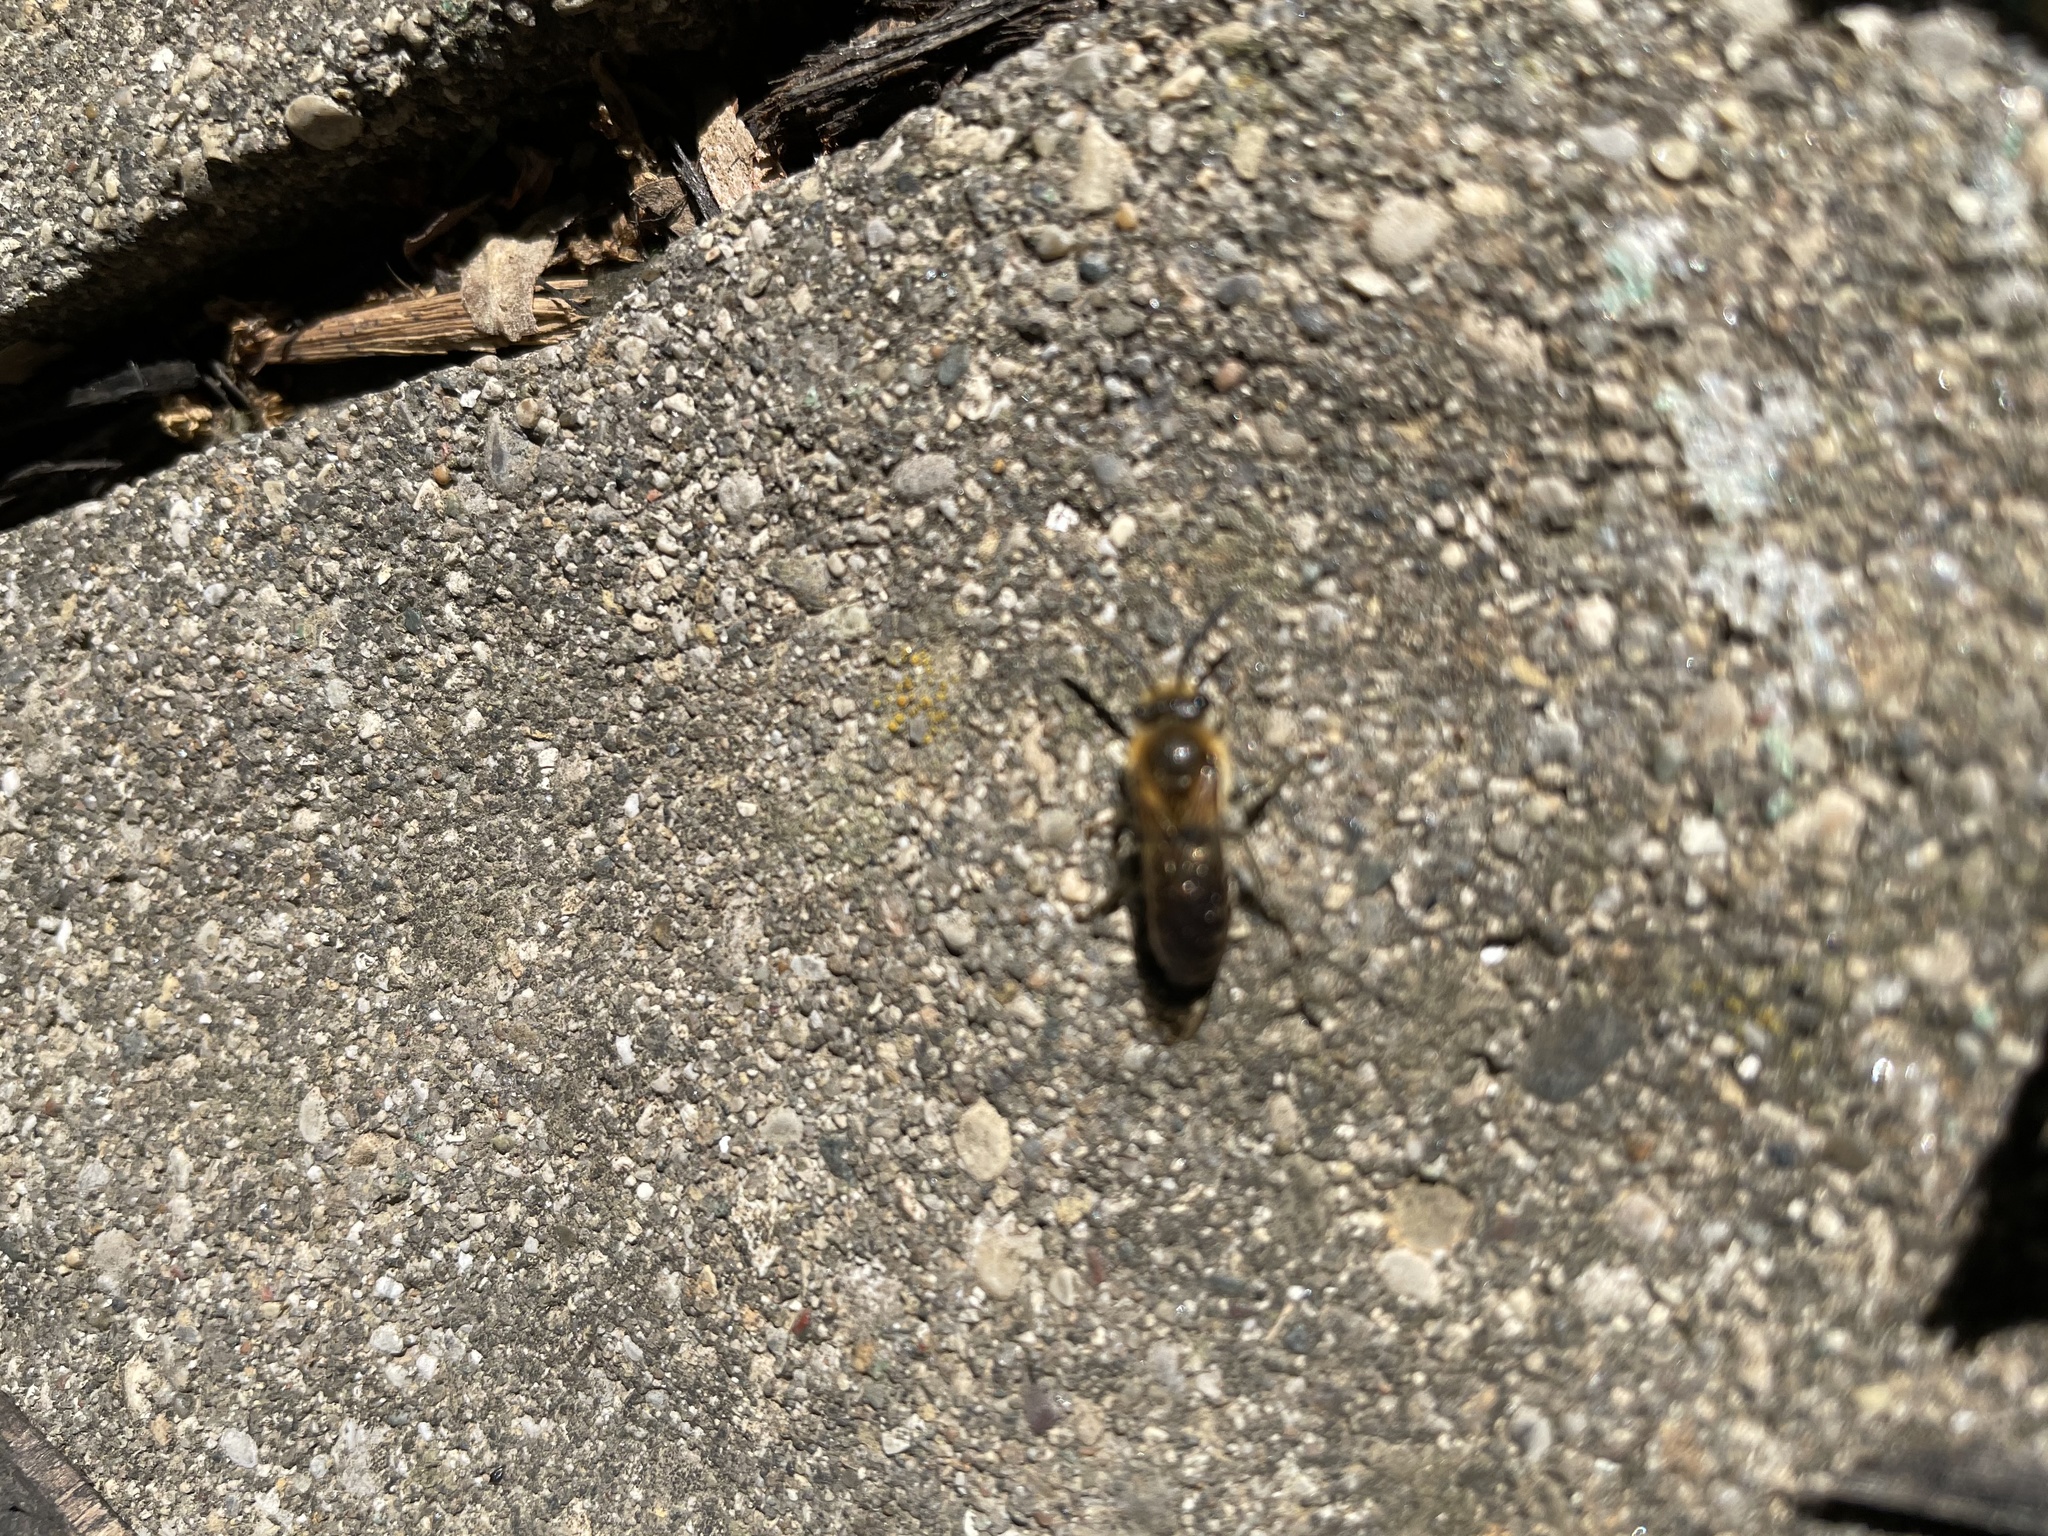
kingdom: Animalia
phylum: Arthropoda
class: Insecta
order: Hymenoptera
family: Colletidae
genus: Colletes
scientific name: Colletes thoracicus
